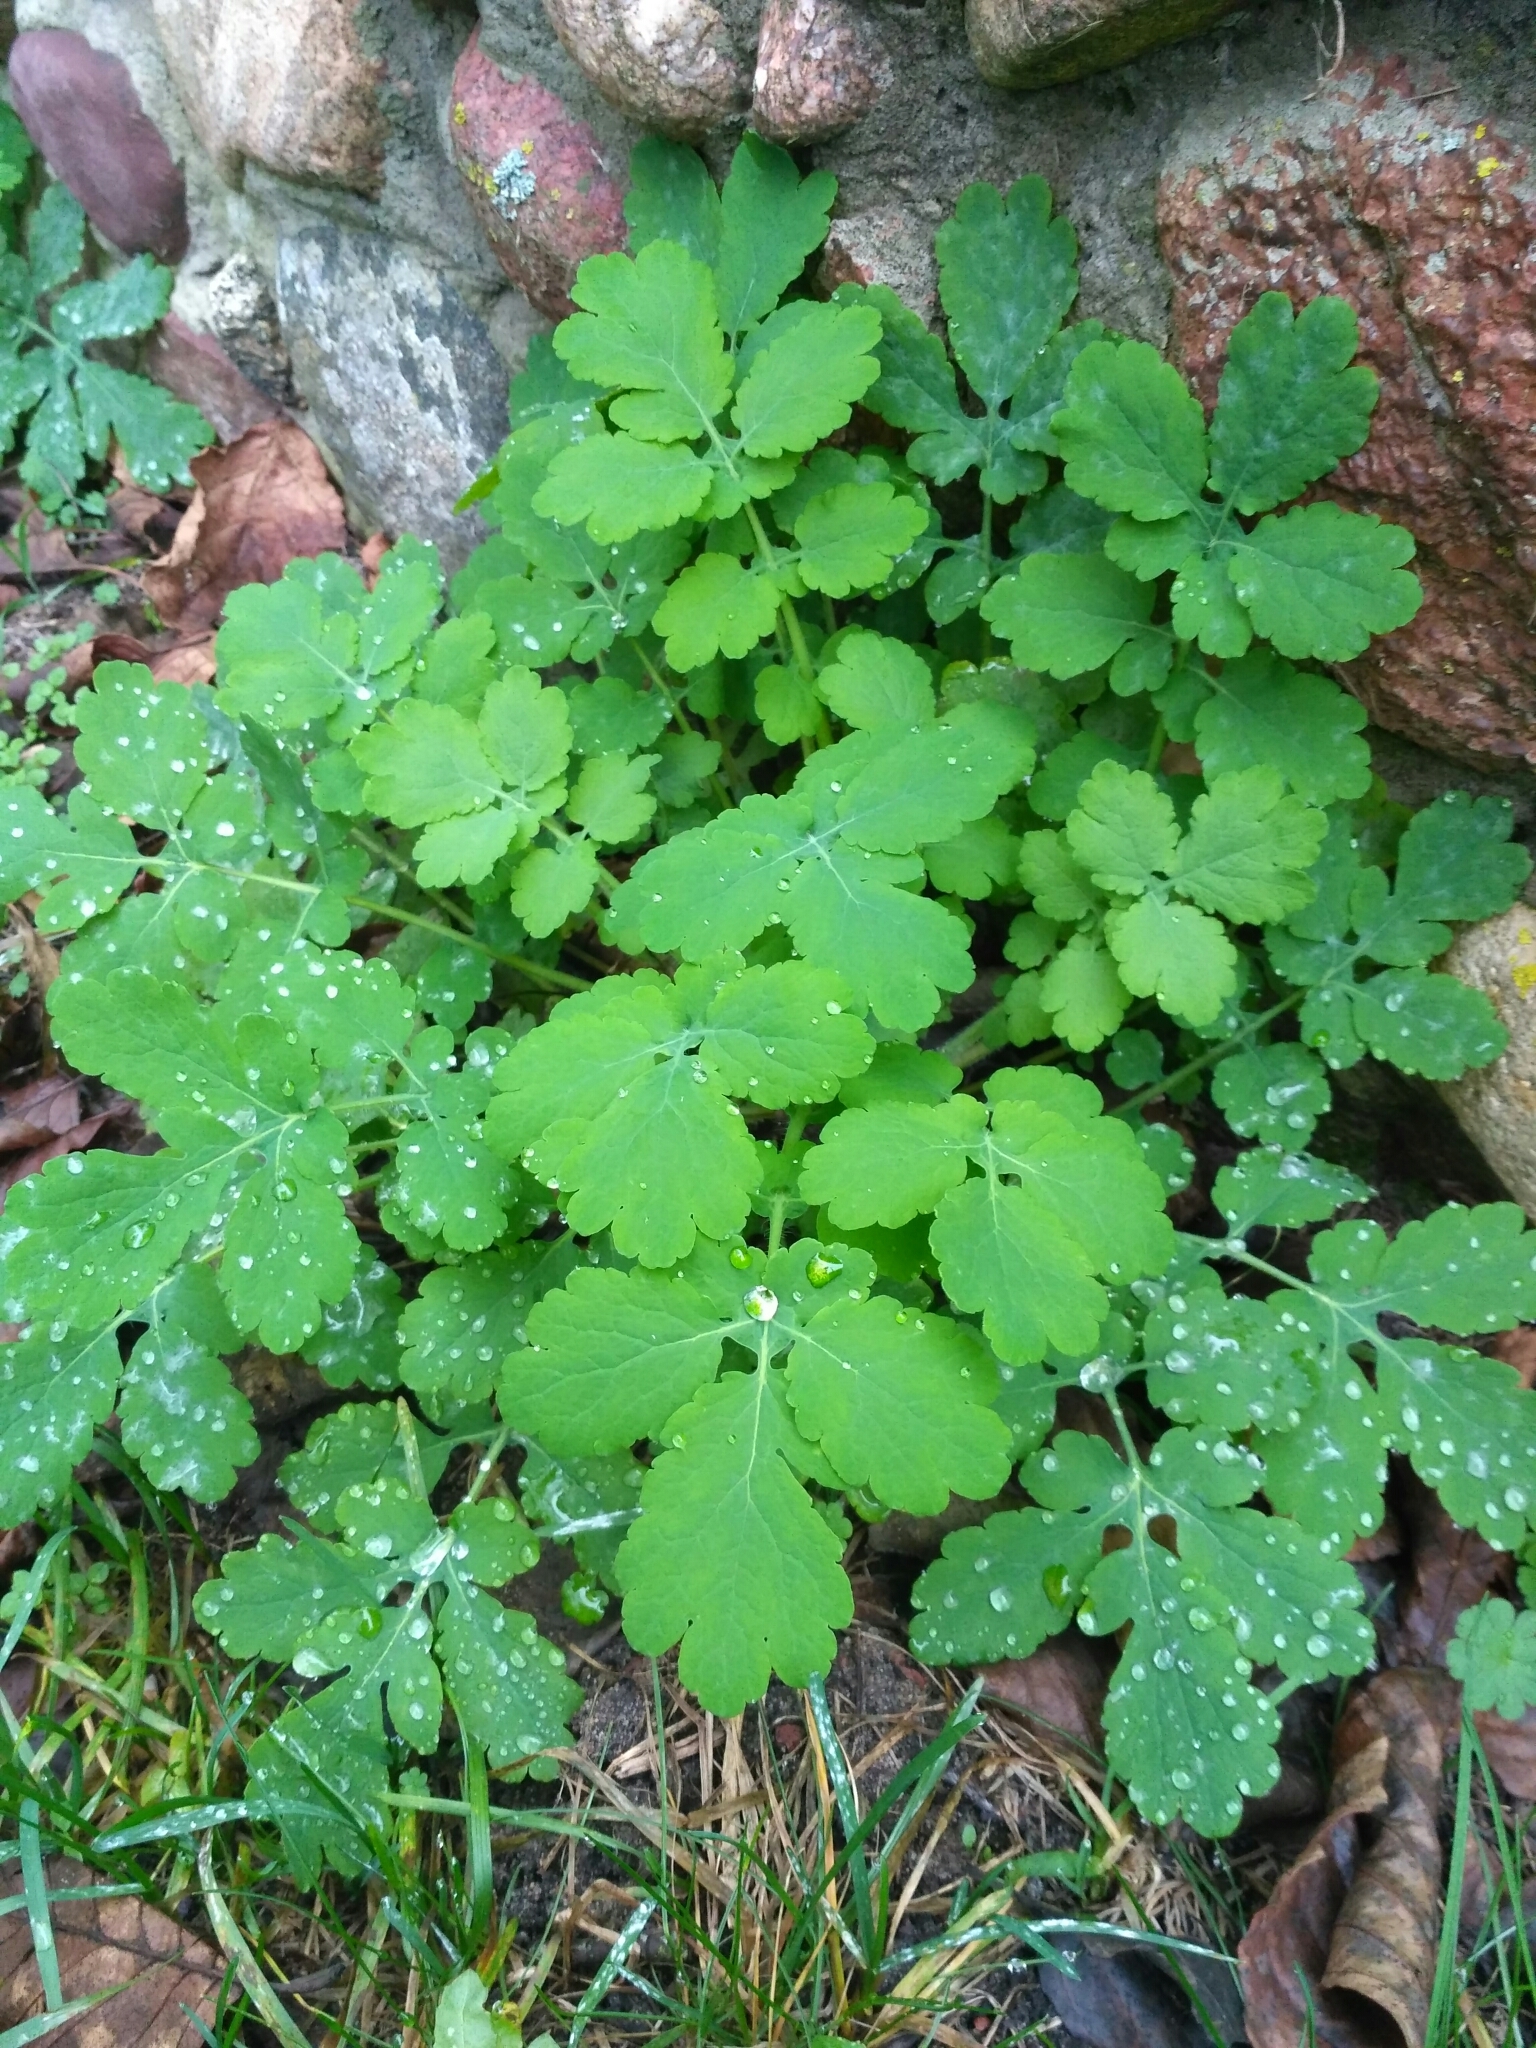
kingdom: Plantae
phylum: Tracheophyta
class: Magnoliopsida
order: Ranunculales
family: Papaveraceae
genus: Chelidonium
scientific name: Chelidonium majus
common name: Greater celandine
